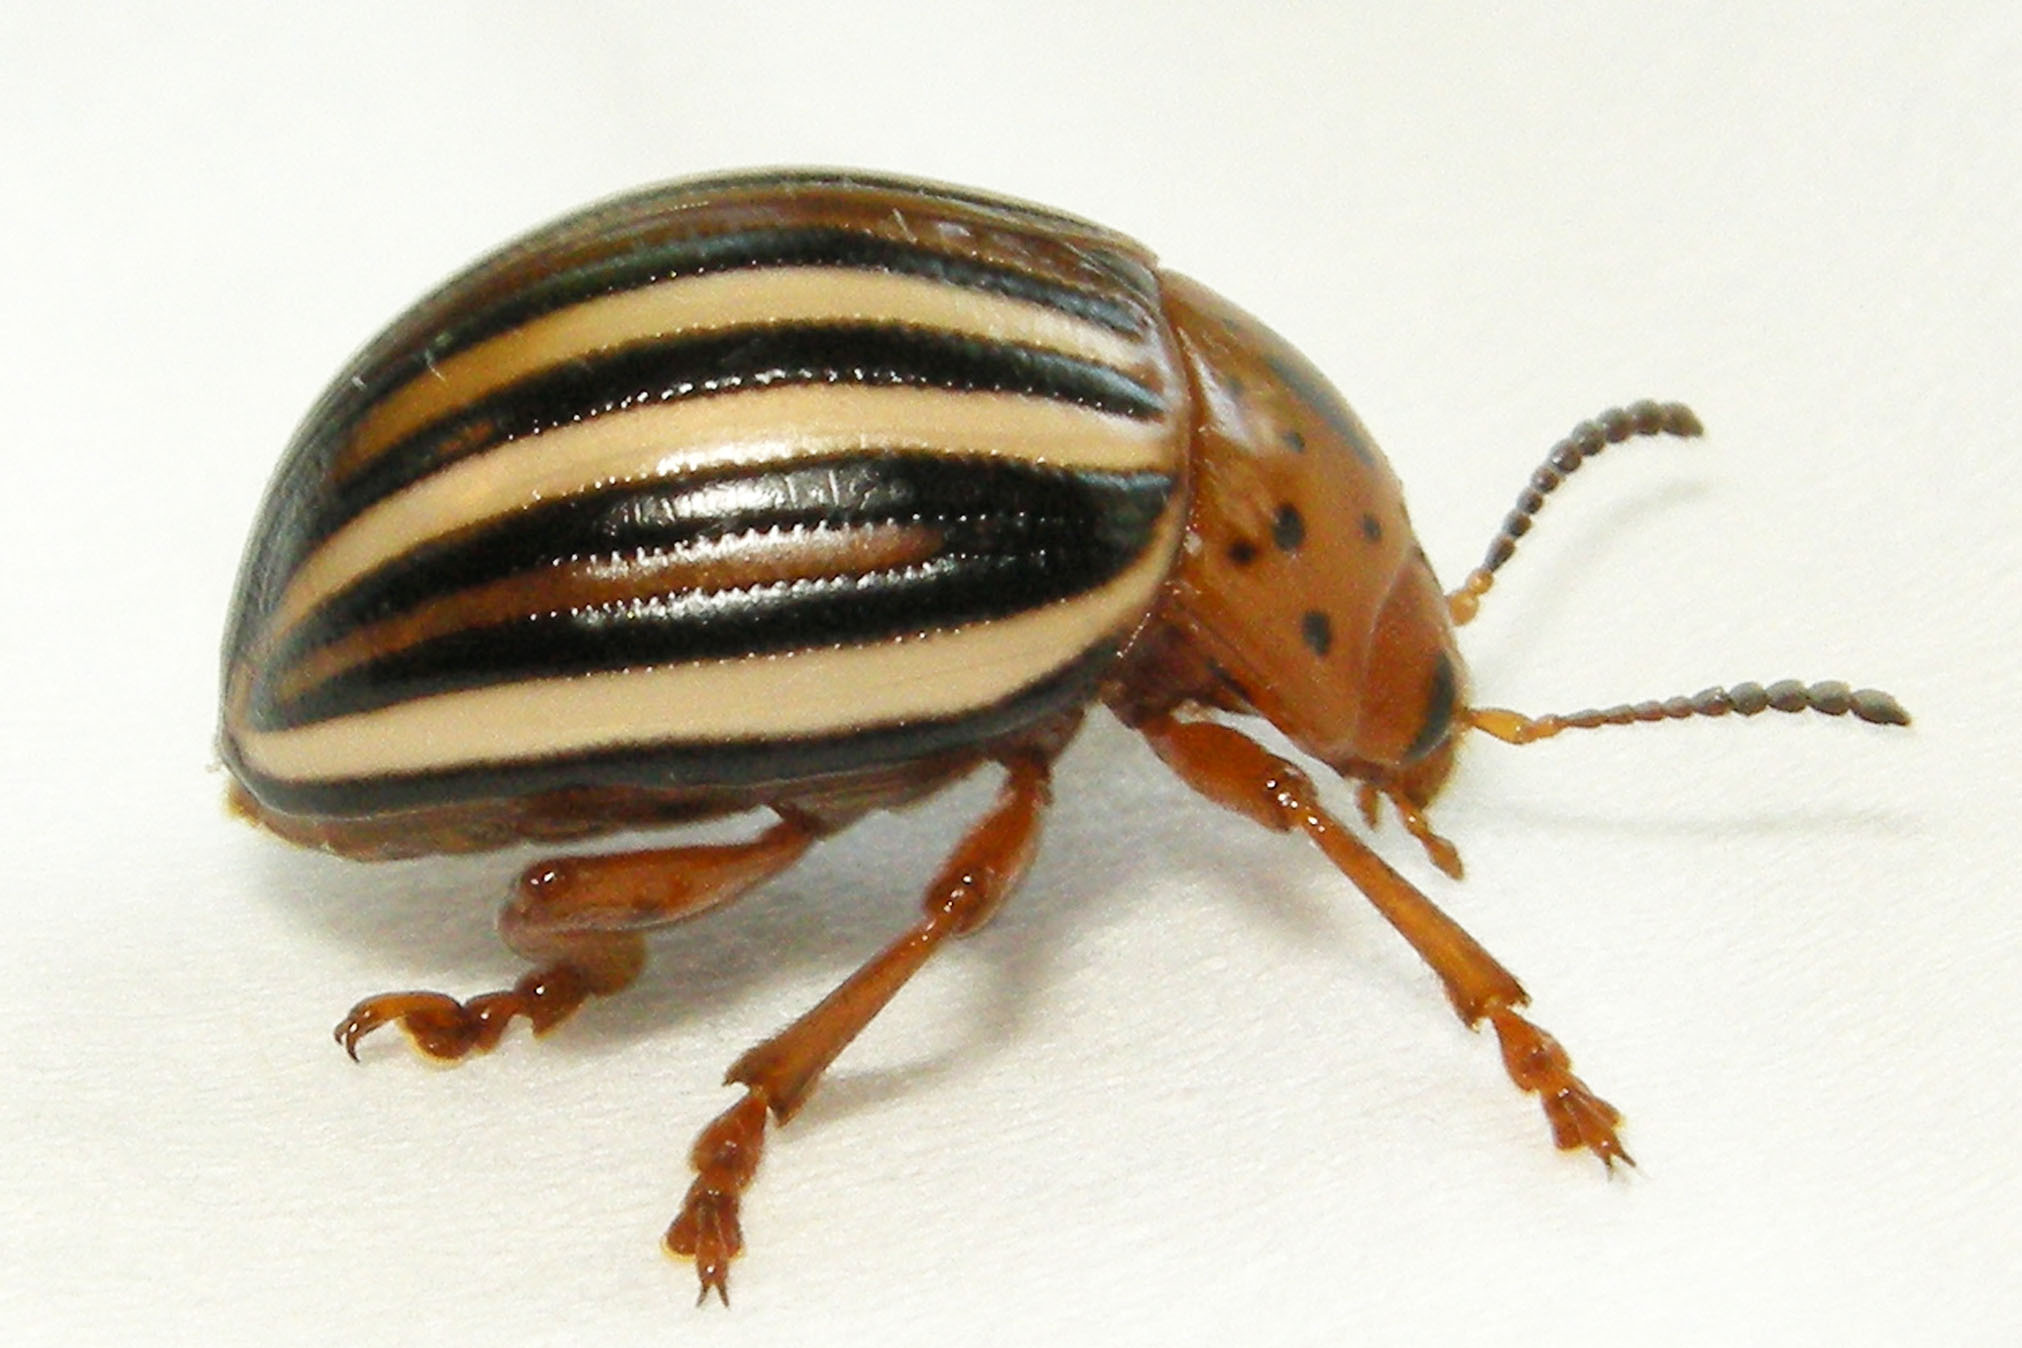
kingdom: Animalia
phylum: Arthropoda
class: Insecta
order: Coleoptera
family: Chrysomelidae
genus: Leptinotarsa
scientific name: Leptinotarsa juncta
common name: False potato beetle
